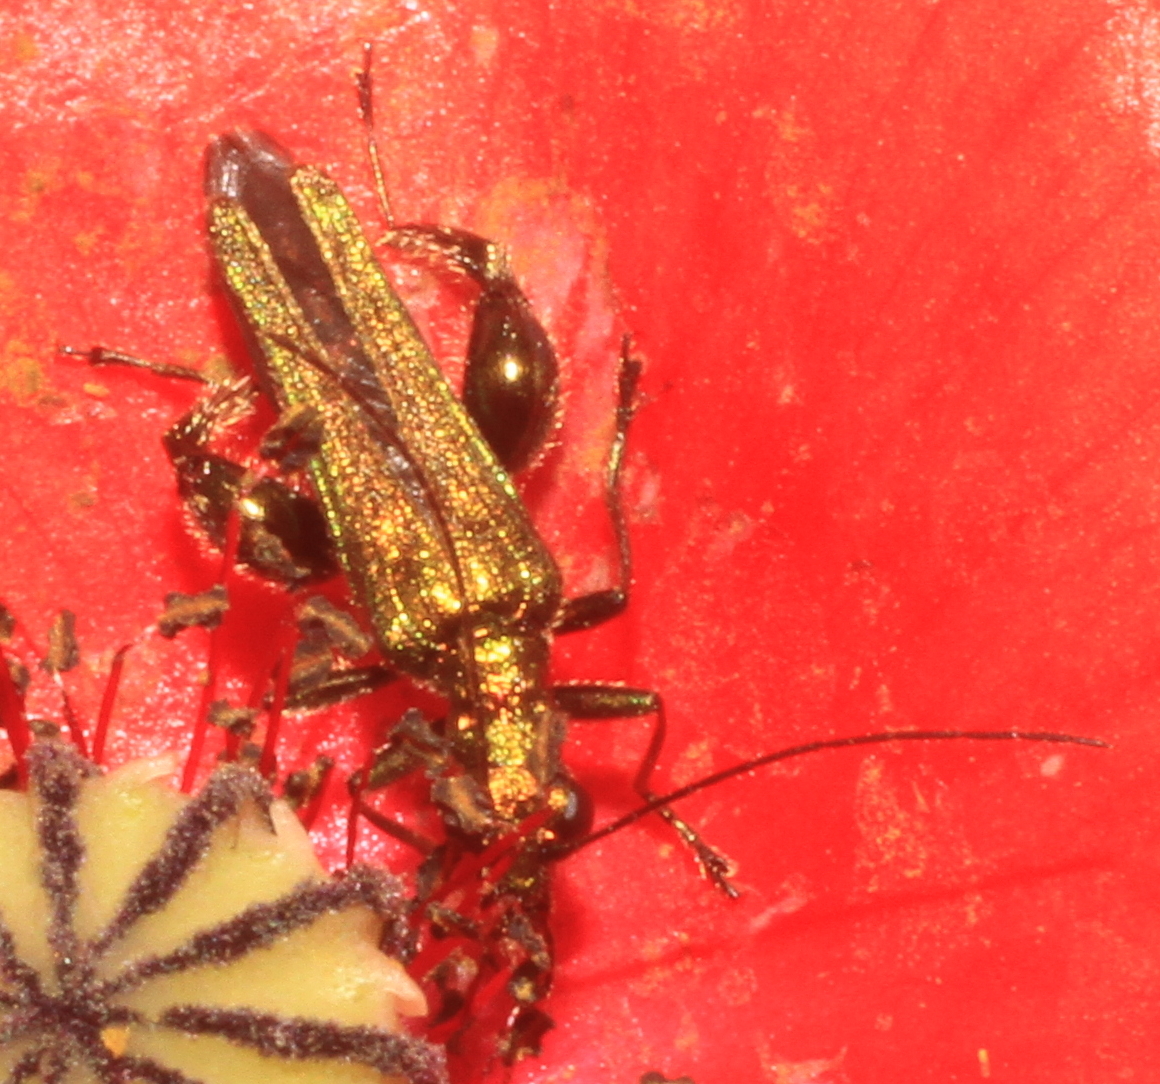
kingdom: Animalia
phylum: Arthropoda
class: Insecta
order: Coleoptera
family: Oedemeridae
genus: Oedemera
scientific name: Oedemera nobilis
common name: Swollen-thighed beetle
